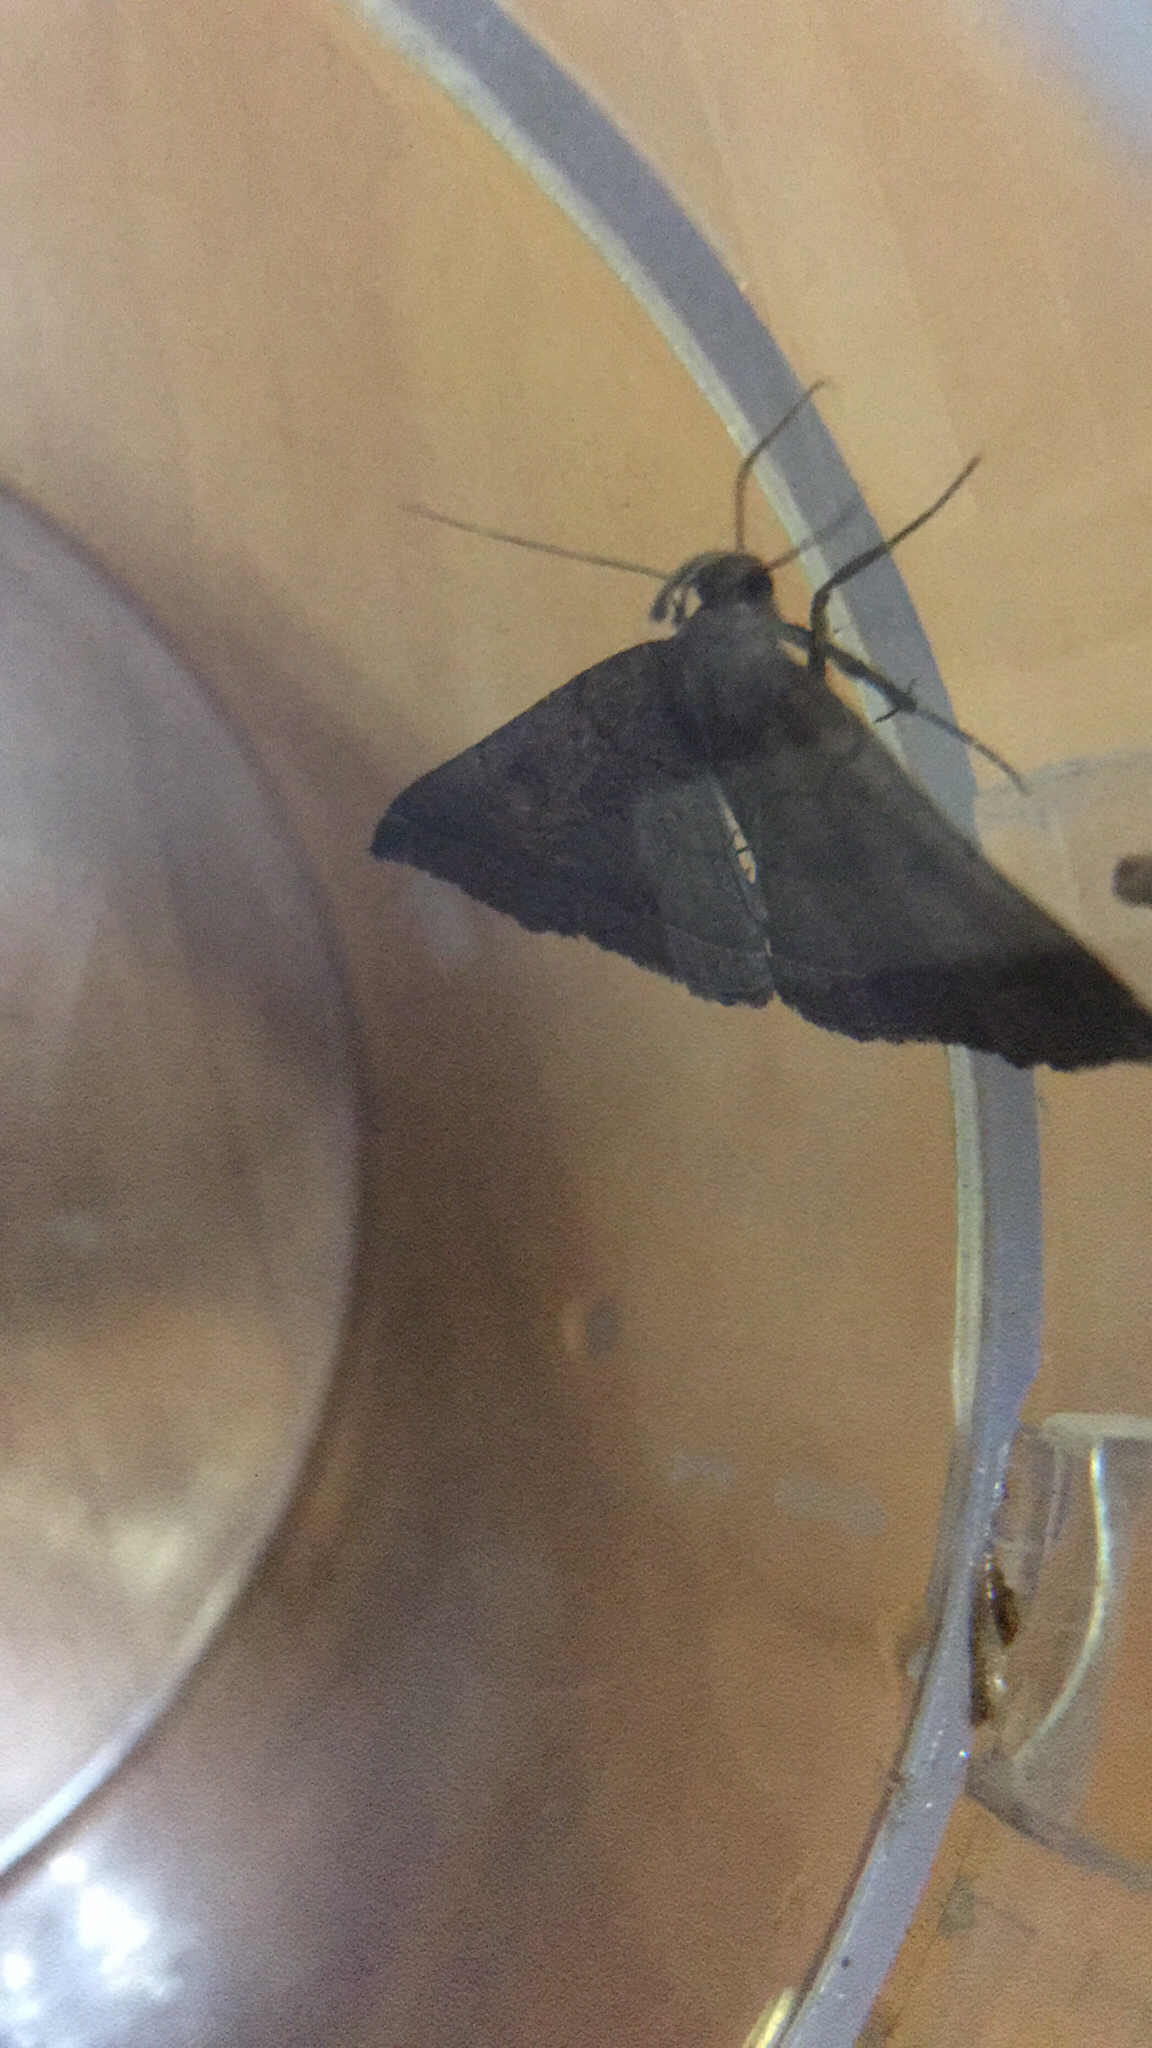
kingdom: Animalia
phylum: Arthropoda
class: Insecta
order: Lepidoptera
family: Erebidae
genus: Pechipogo
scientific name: Pechipogo plumigeralis
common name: Plumed fan-foot
